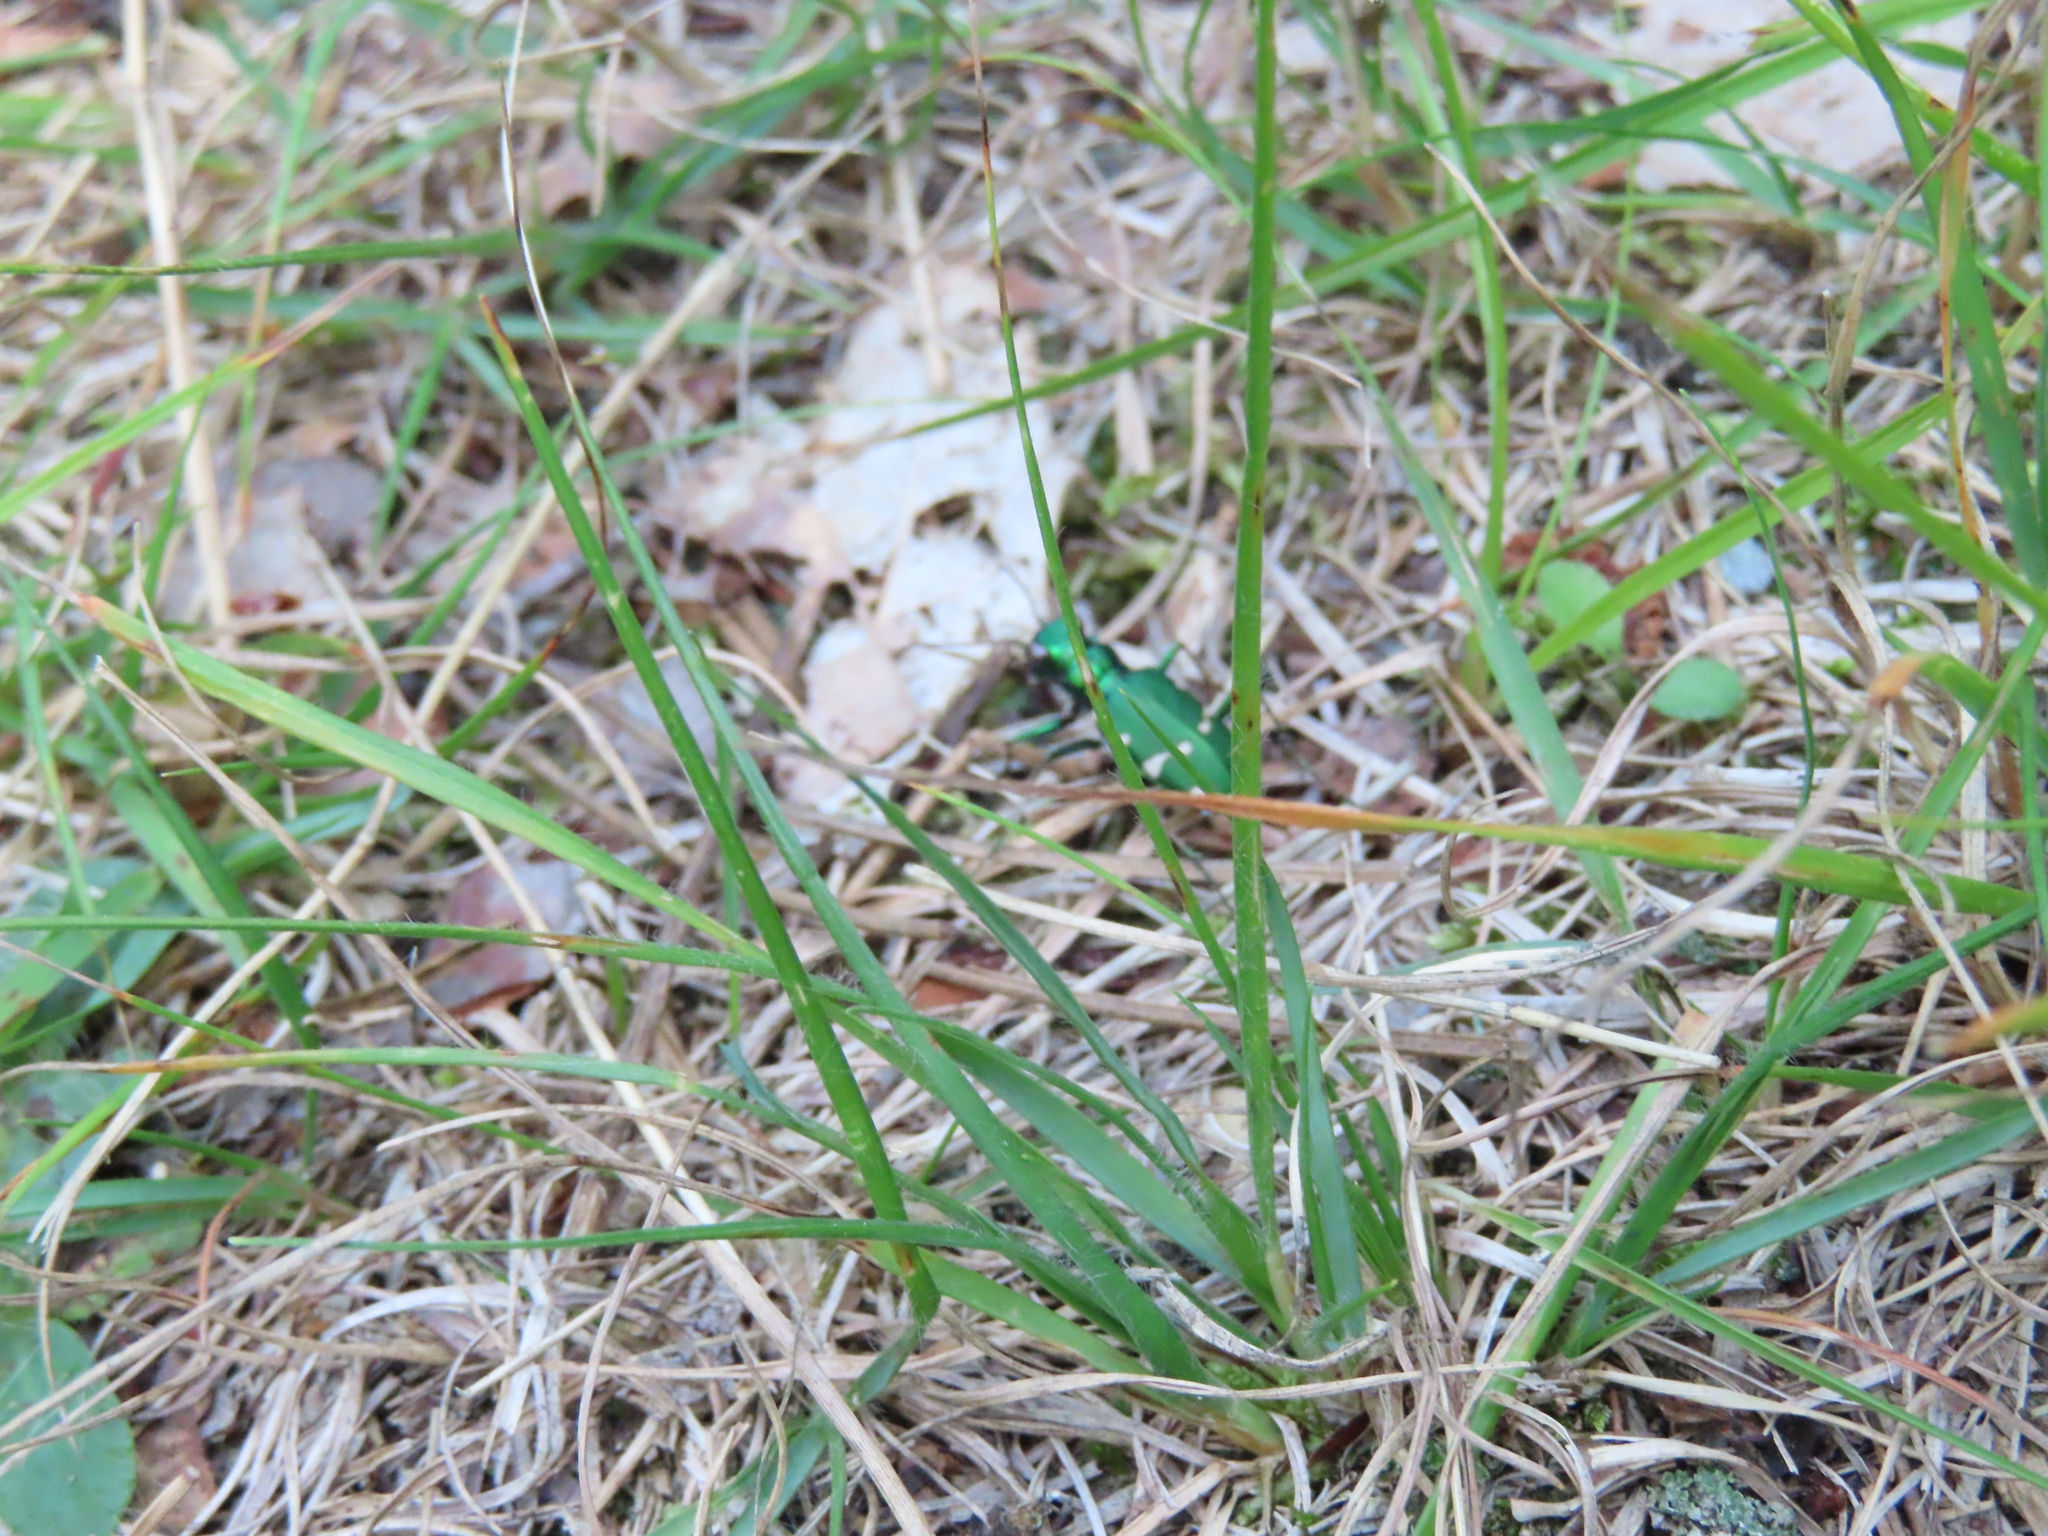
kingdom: Animalia
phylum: Arthropoda
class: Insecta
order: Coleoptera
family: Carabidae
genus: Cicindela
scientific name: Cicindela patruela
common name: Northern barrens tiger beetle
